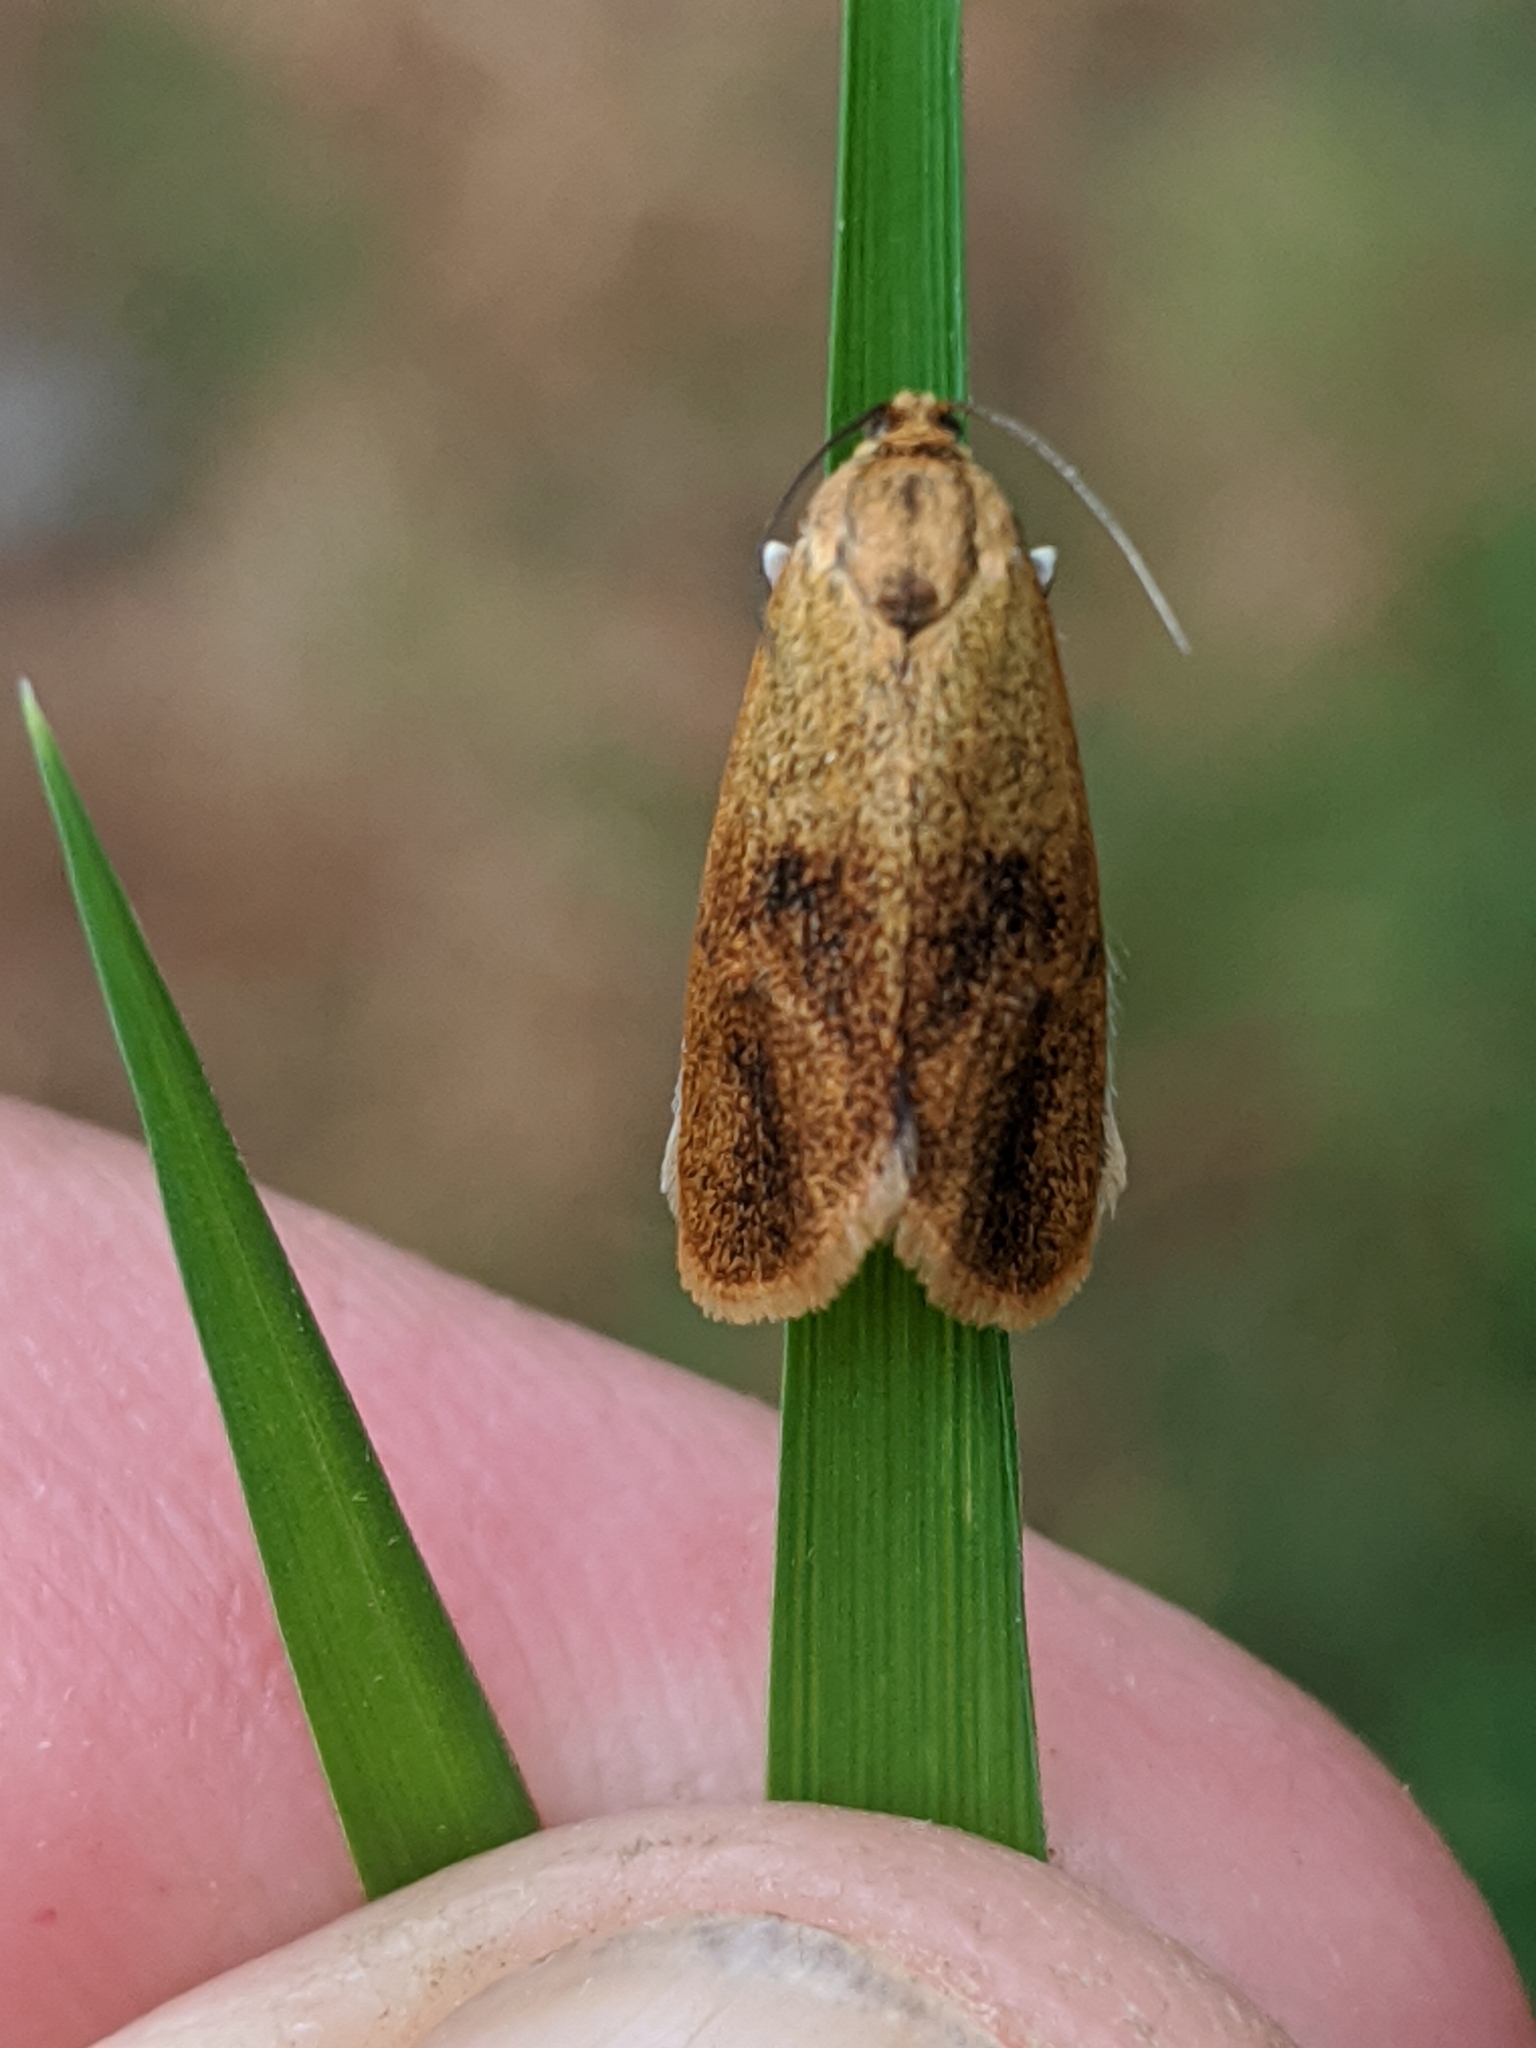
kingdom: Animalia
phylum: Arthropoda
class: Insecta
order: Lepidoptera
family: Tortricidae
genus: Ptycholoma
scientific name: Ptycholoma lecheana
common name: Leches twist moth
